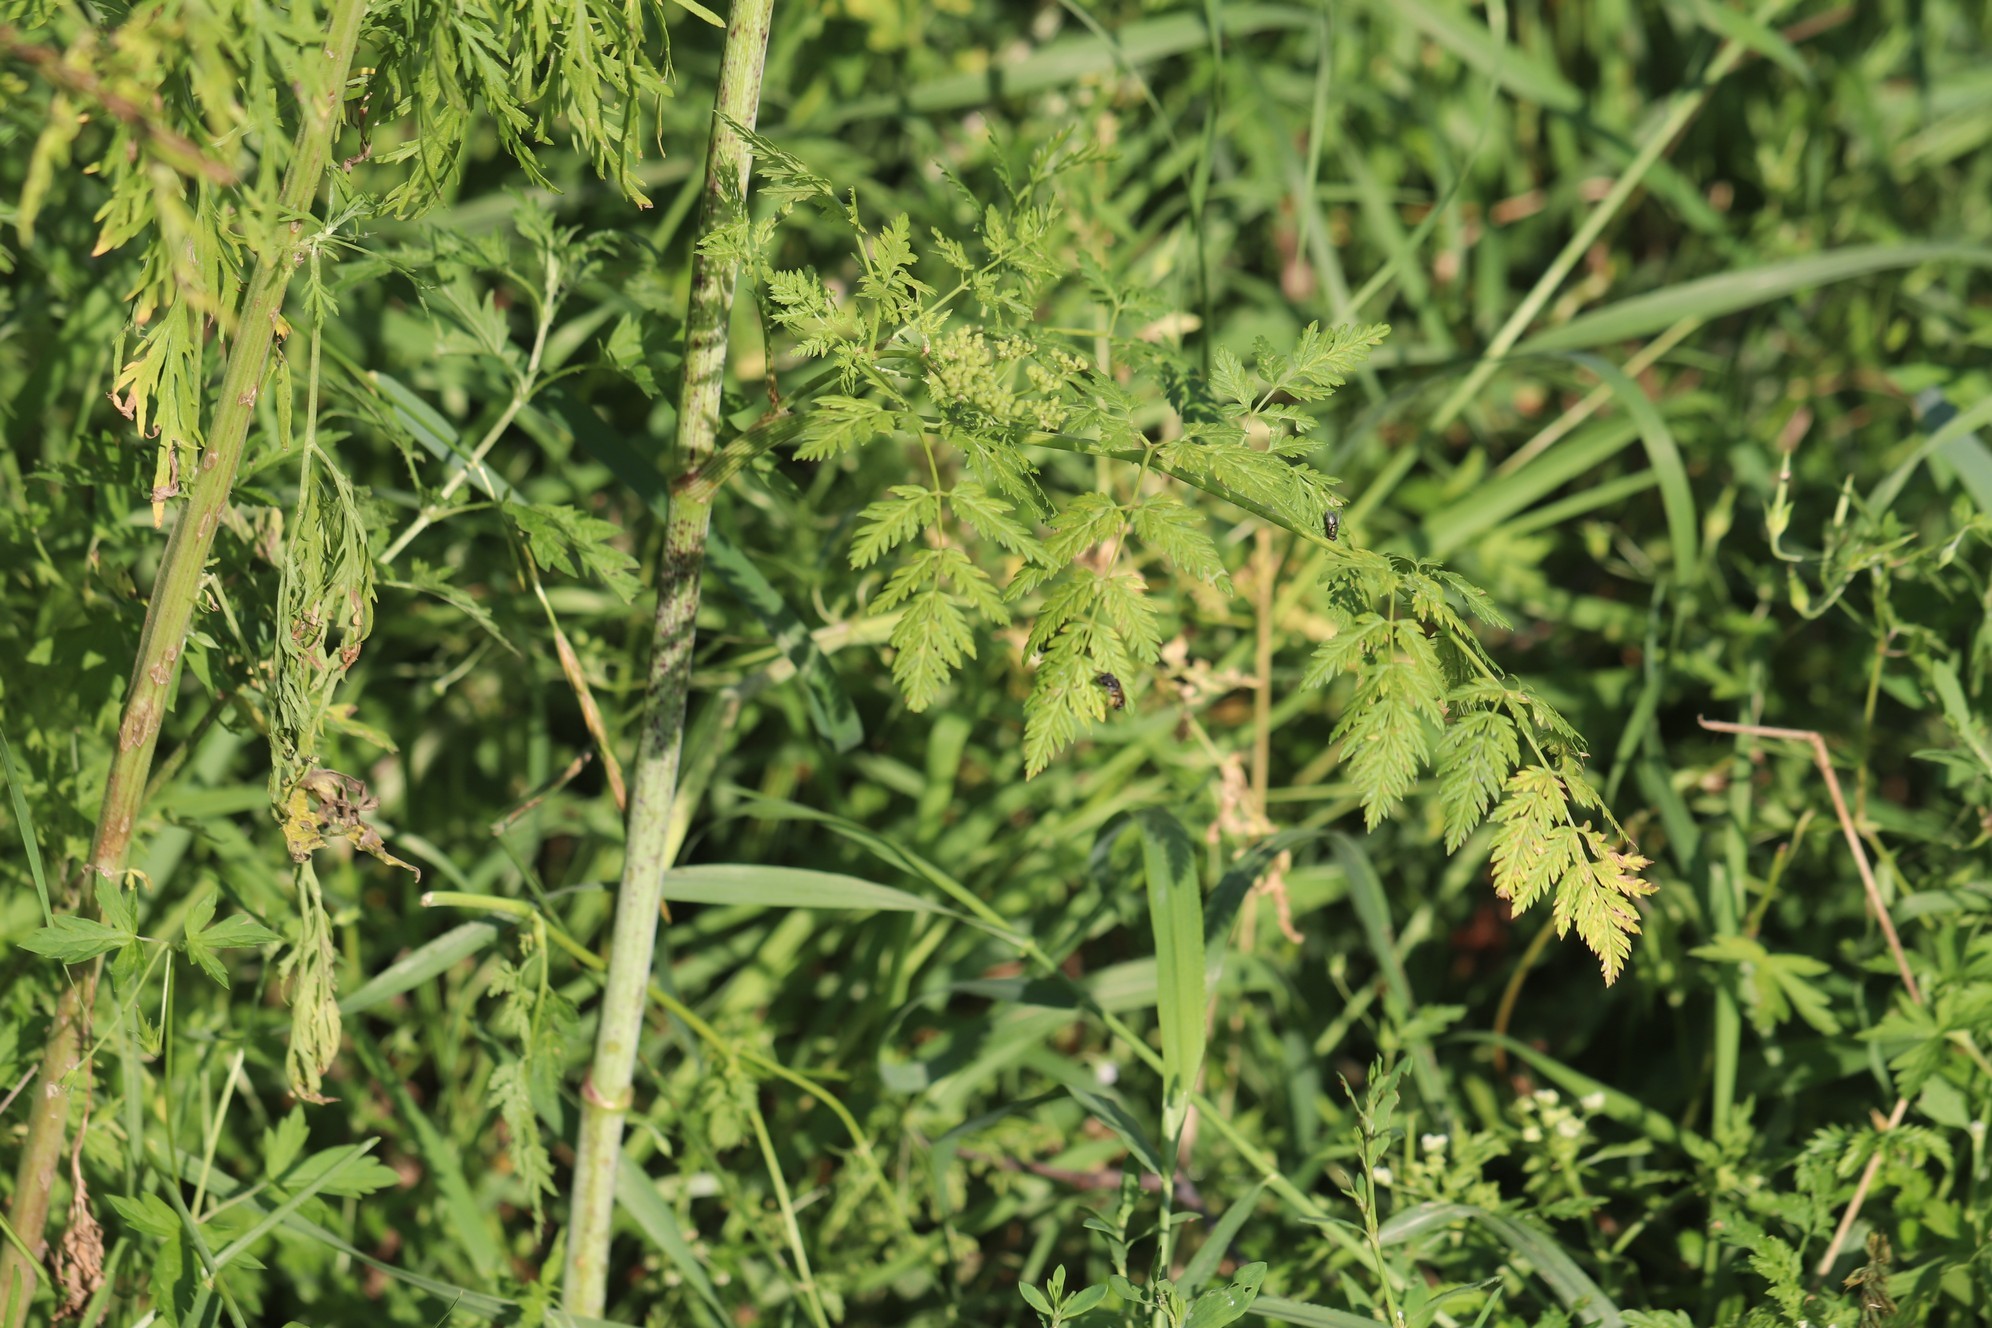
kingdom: Plantae
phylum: Tracheophyta
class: Magnoliopsida
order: Apiales
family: Apiaceae
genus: Conium
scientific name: Conium maculatum
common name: Hemlock
